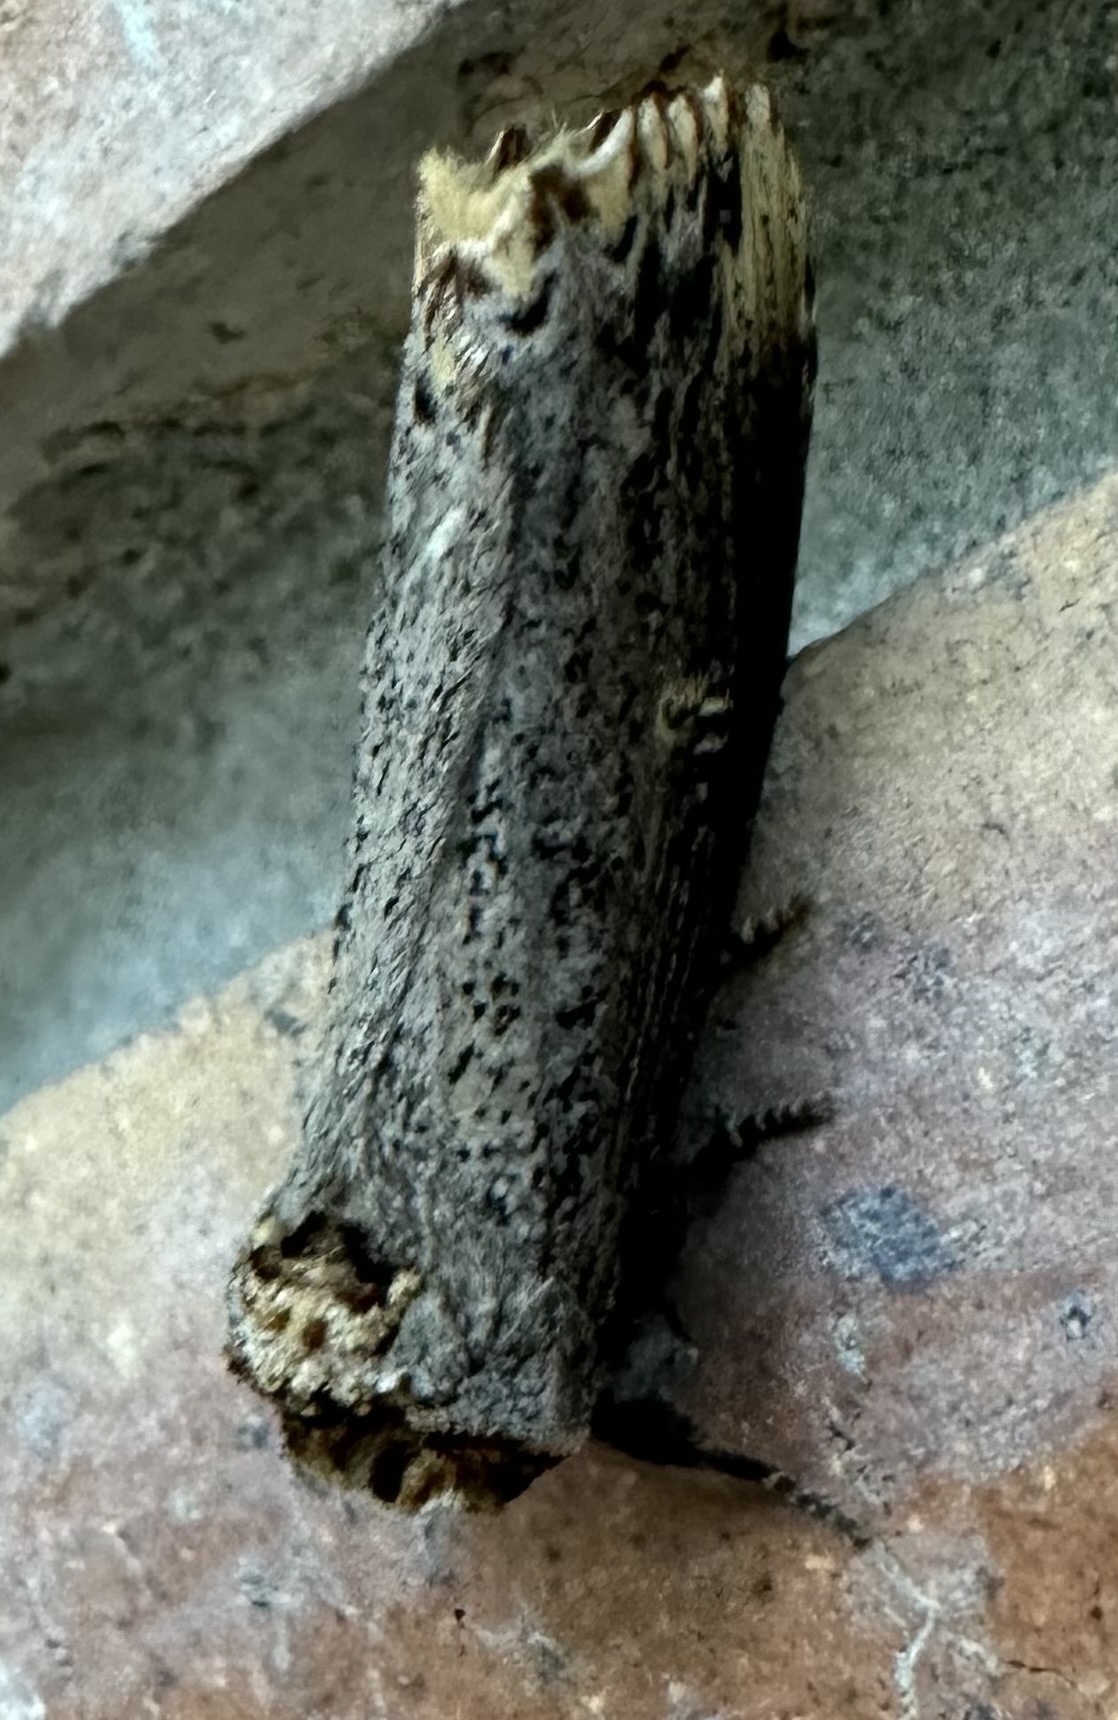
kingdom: Animalia
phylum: Arthropoda
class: Insecta
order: Lepidoptera
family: Notodontidae
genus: Phalera
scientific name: Phalera lydenburgi
